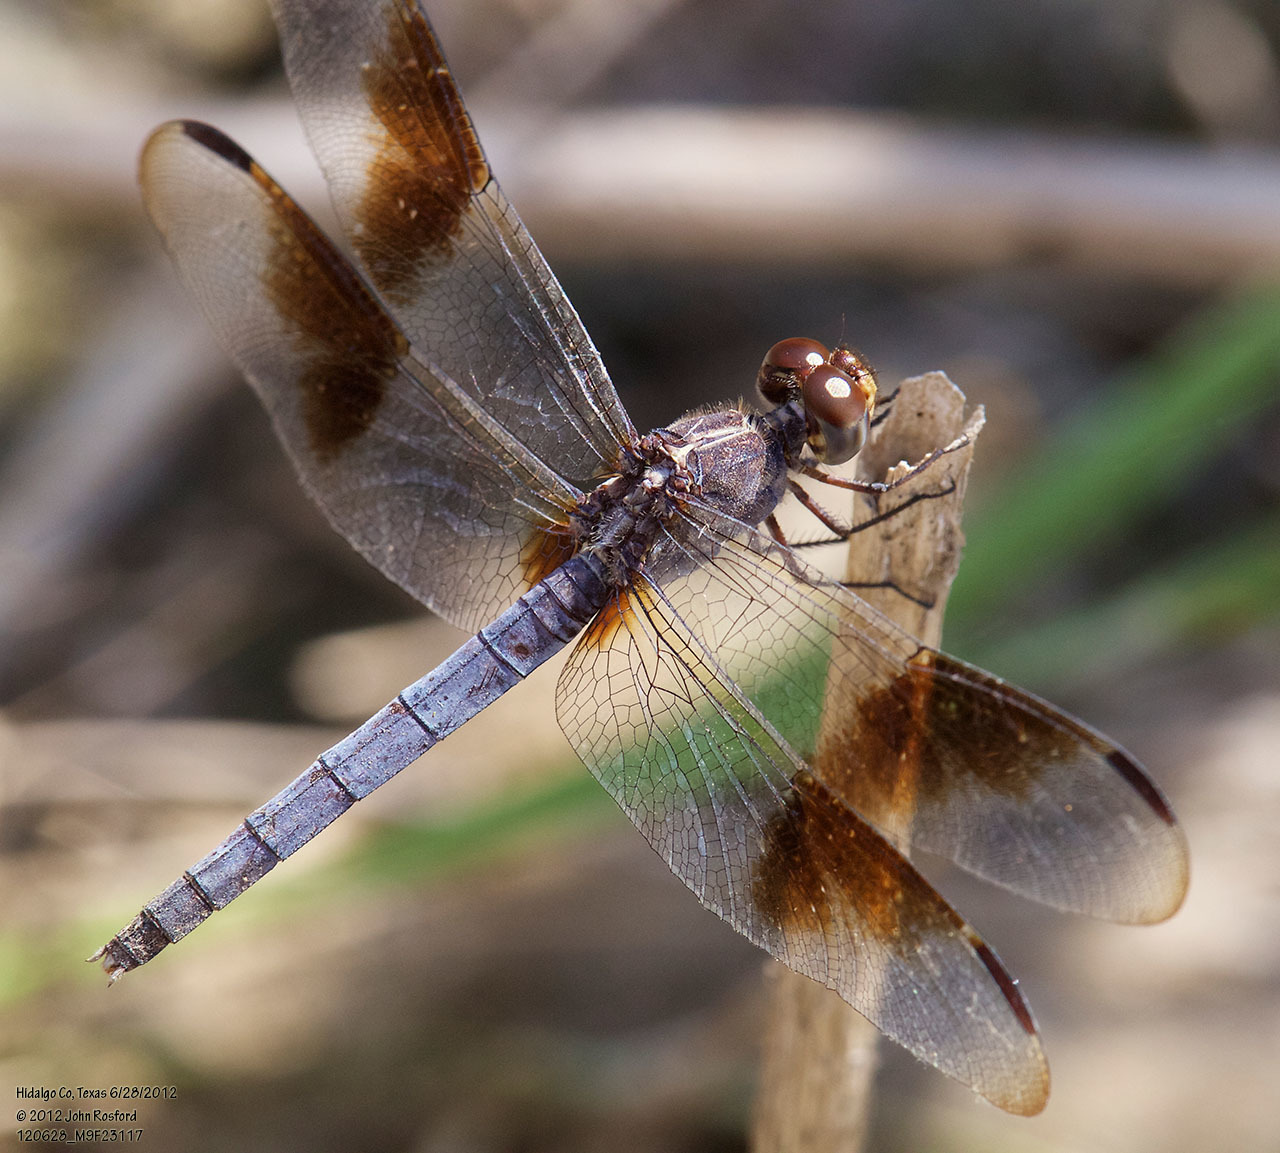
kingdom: Animalia
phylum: Arthropoda
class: Insecta
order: Odonata
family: Libellulidae
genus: Erythrodiplax
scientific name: Erythrodiplax umbrata
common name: Band-winged dragonlet
